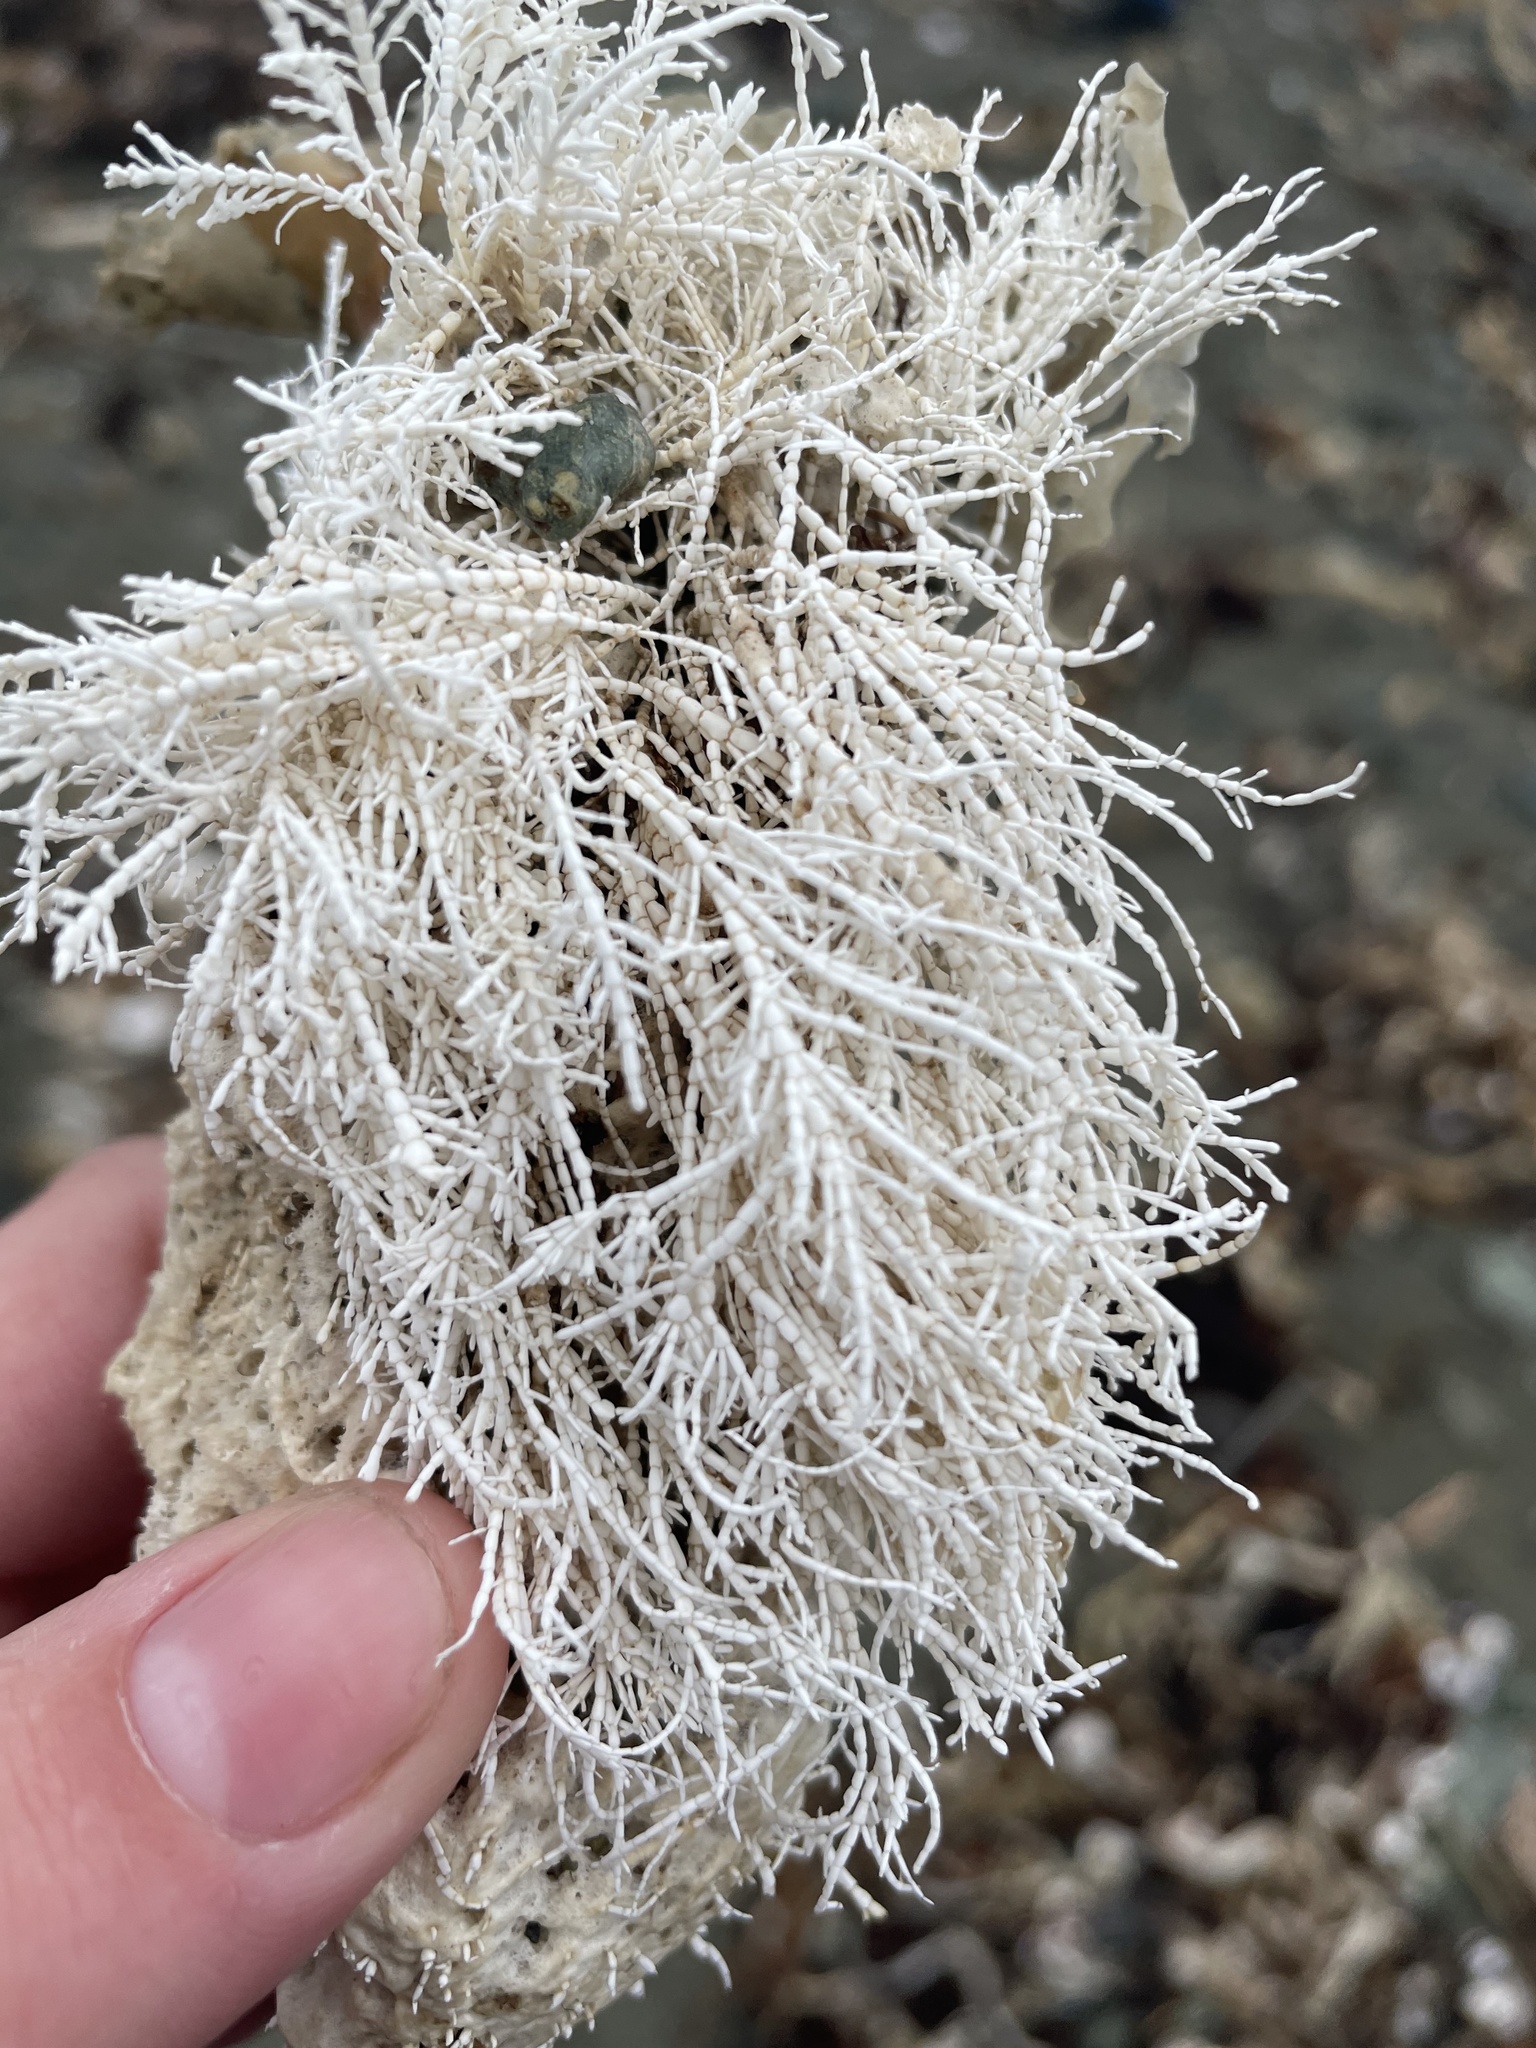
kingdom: Plantae
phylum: Rhodophyta
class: Florideophyceae
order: Corallinales
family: Corallinaceae
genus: Corallina
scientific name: Corallina officinalis
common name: Coral weed
